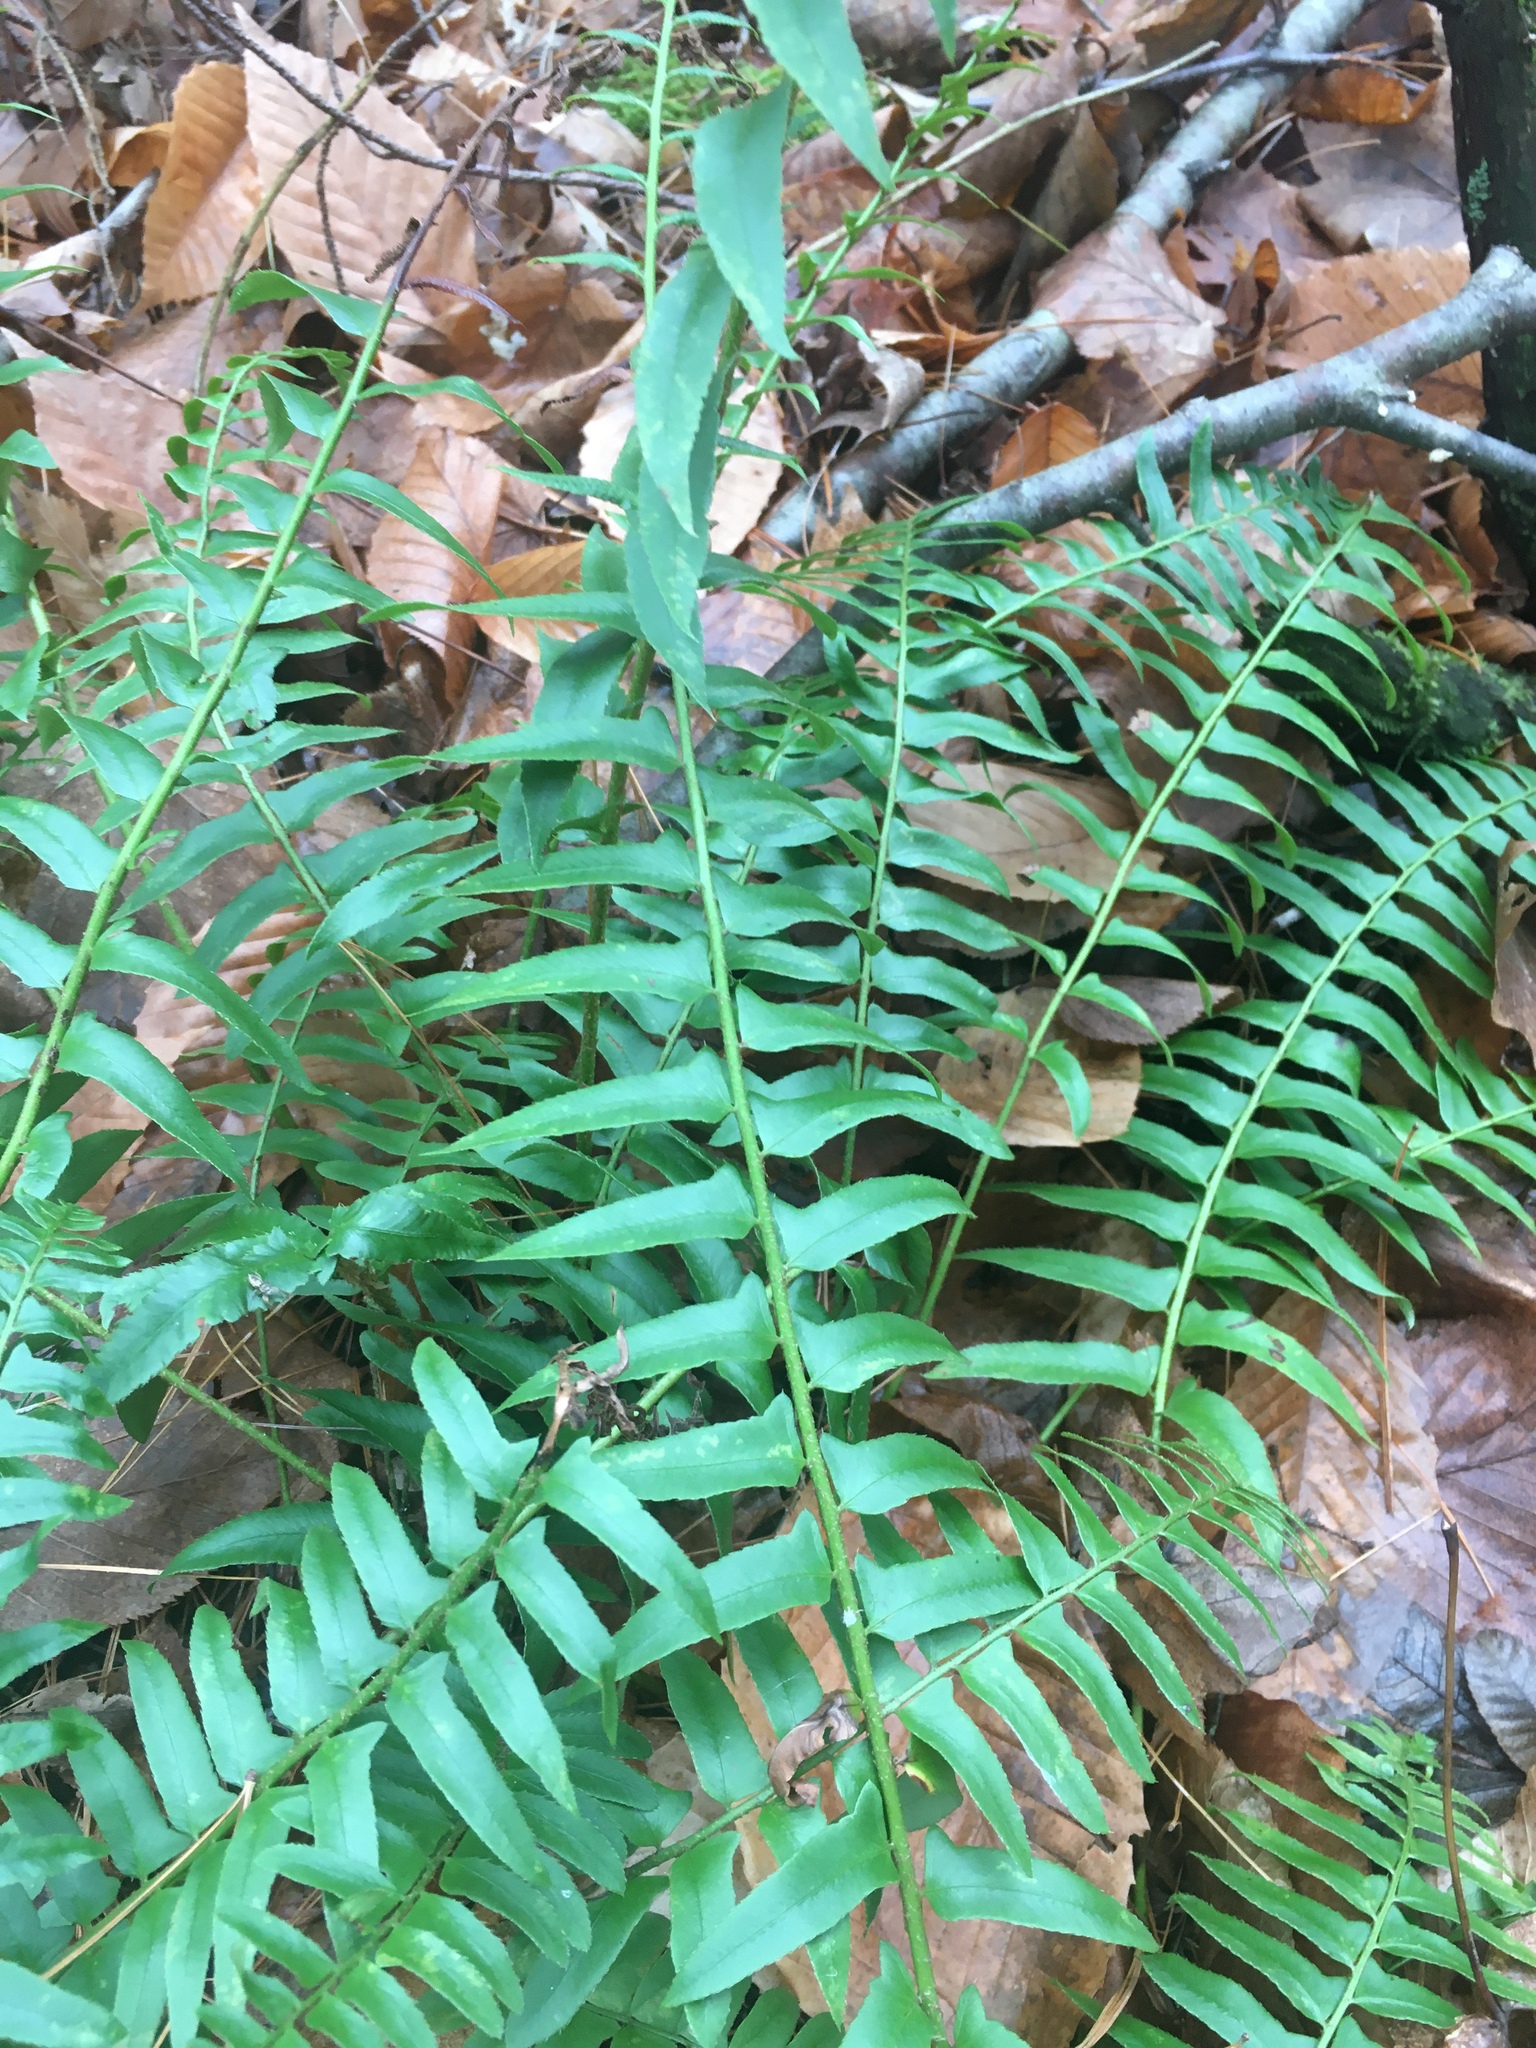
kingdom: Plantae
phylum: Tracheophyta
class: Polypodiopsida
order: Polypodiales
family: Dryopteridaceae
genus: Polystichum
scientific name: Polystichum acrostichoides
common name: Christmas fern
